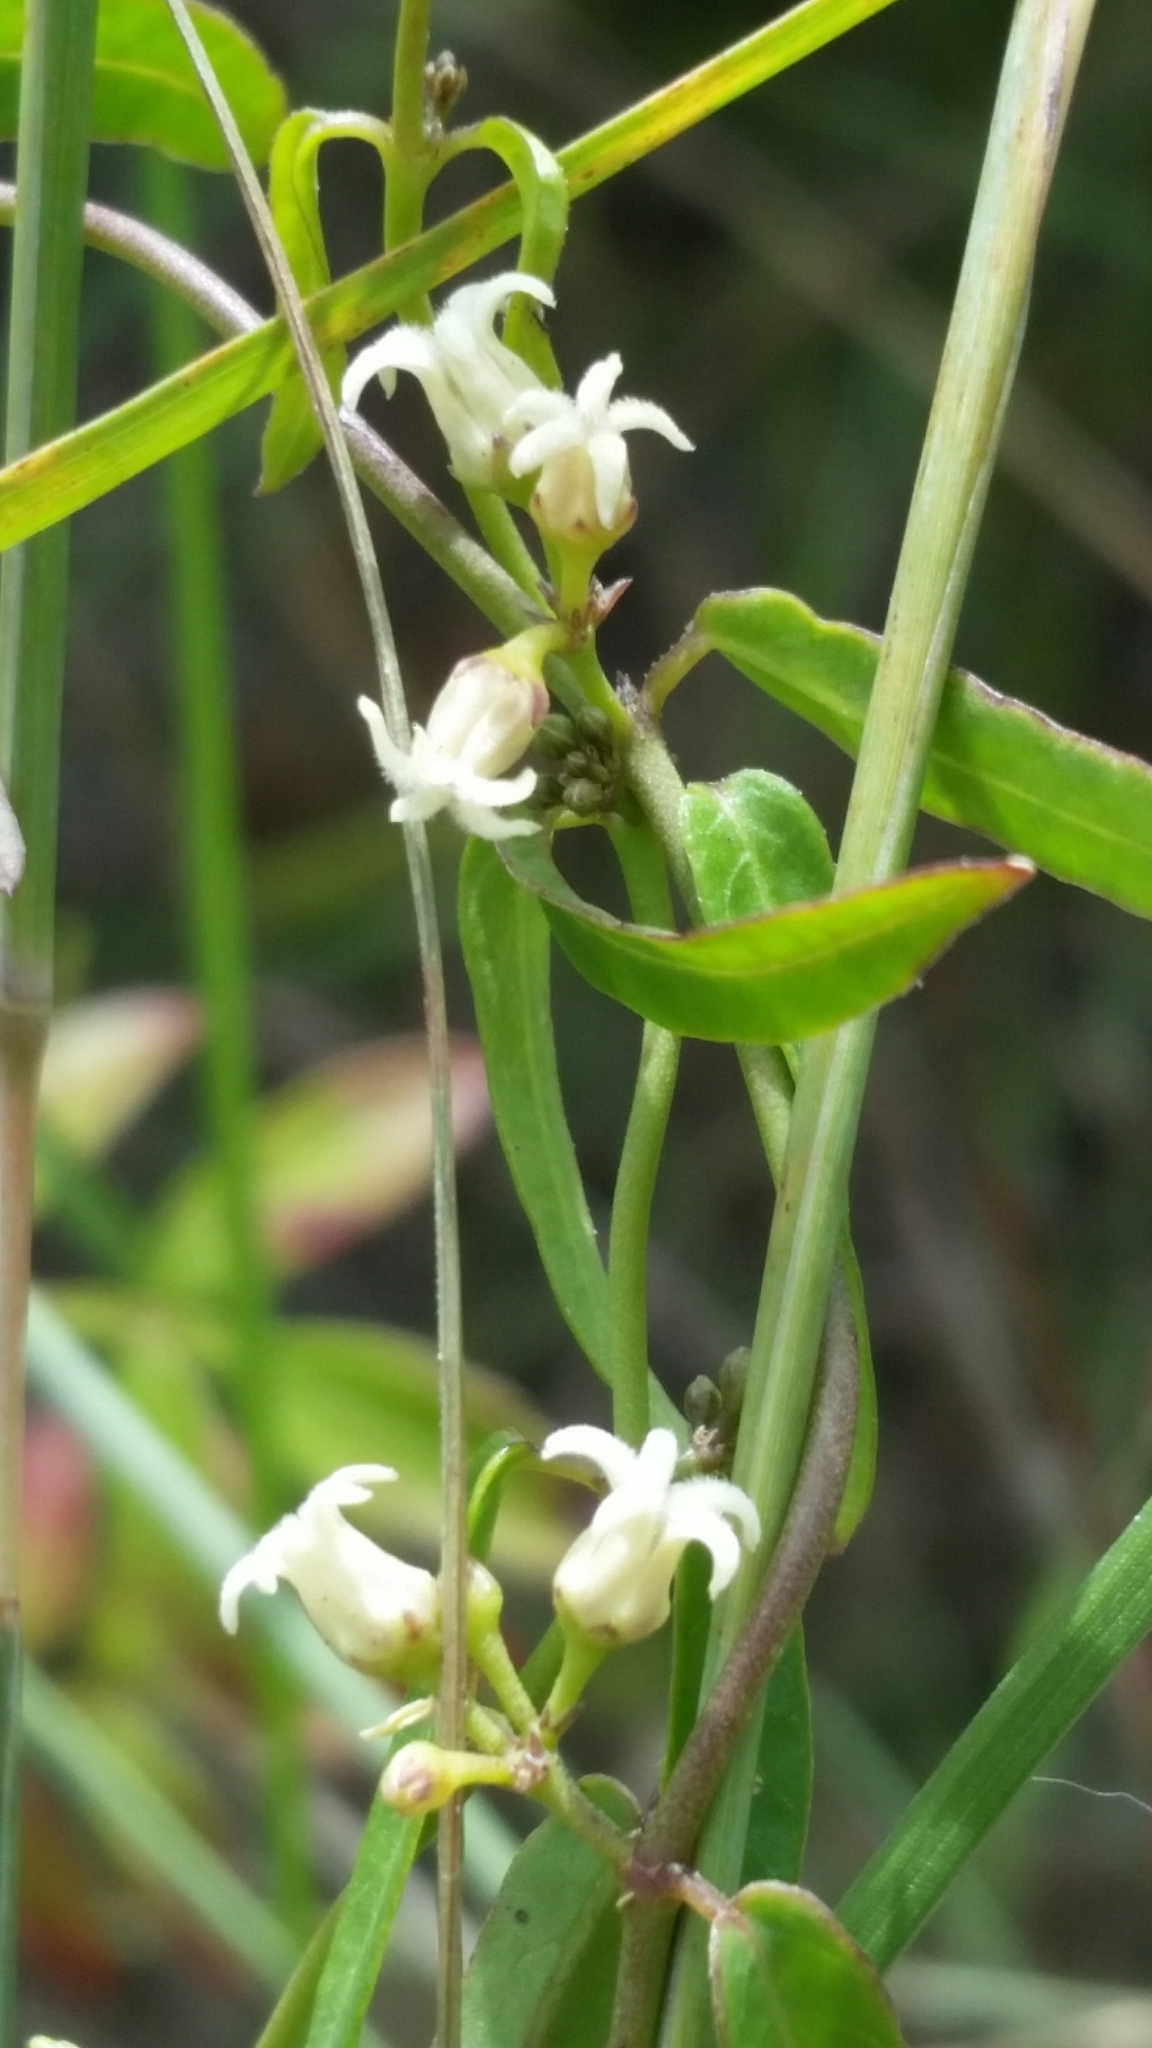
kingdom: Plantae
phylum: Tracheophyta
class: Magnoliopsida
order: Gentianales
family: Apocynaceae
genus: Metastelma
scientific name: Metastelma blodgettii
